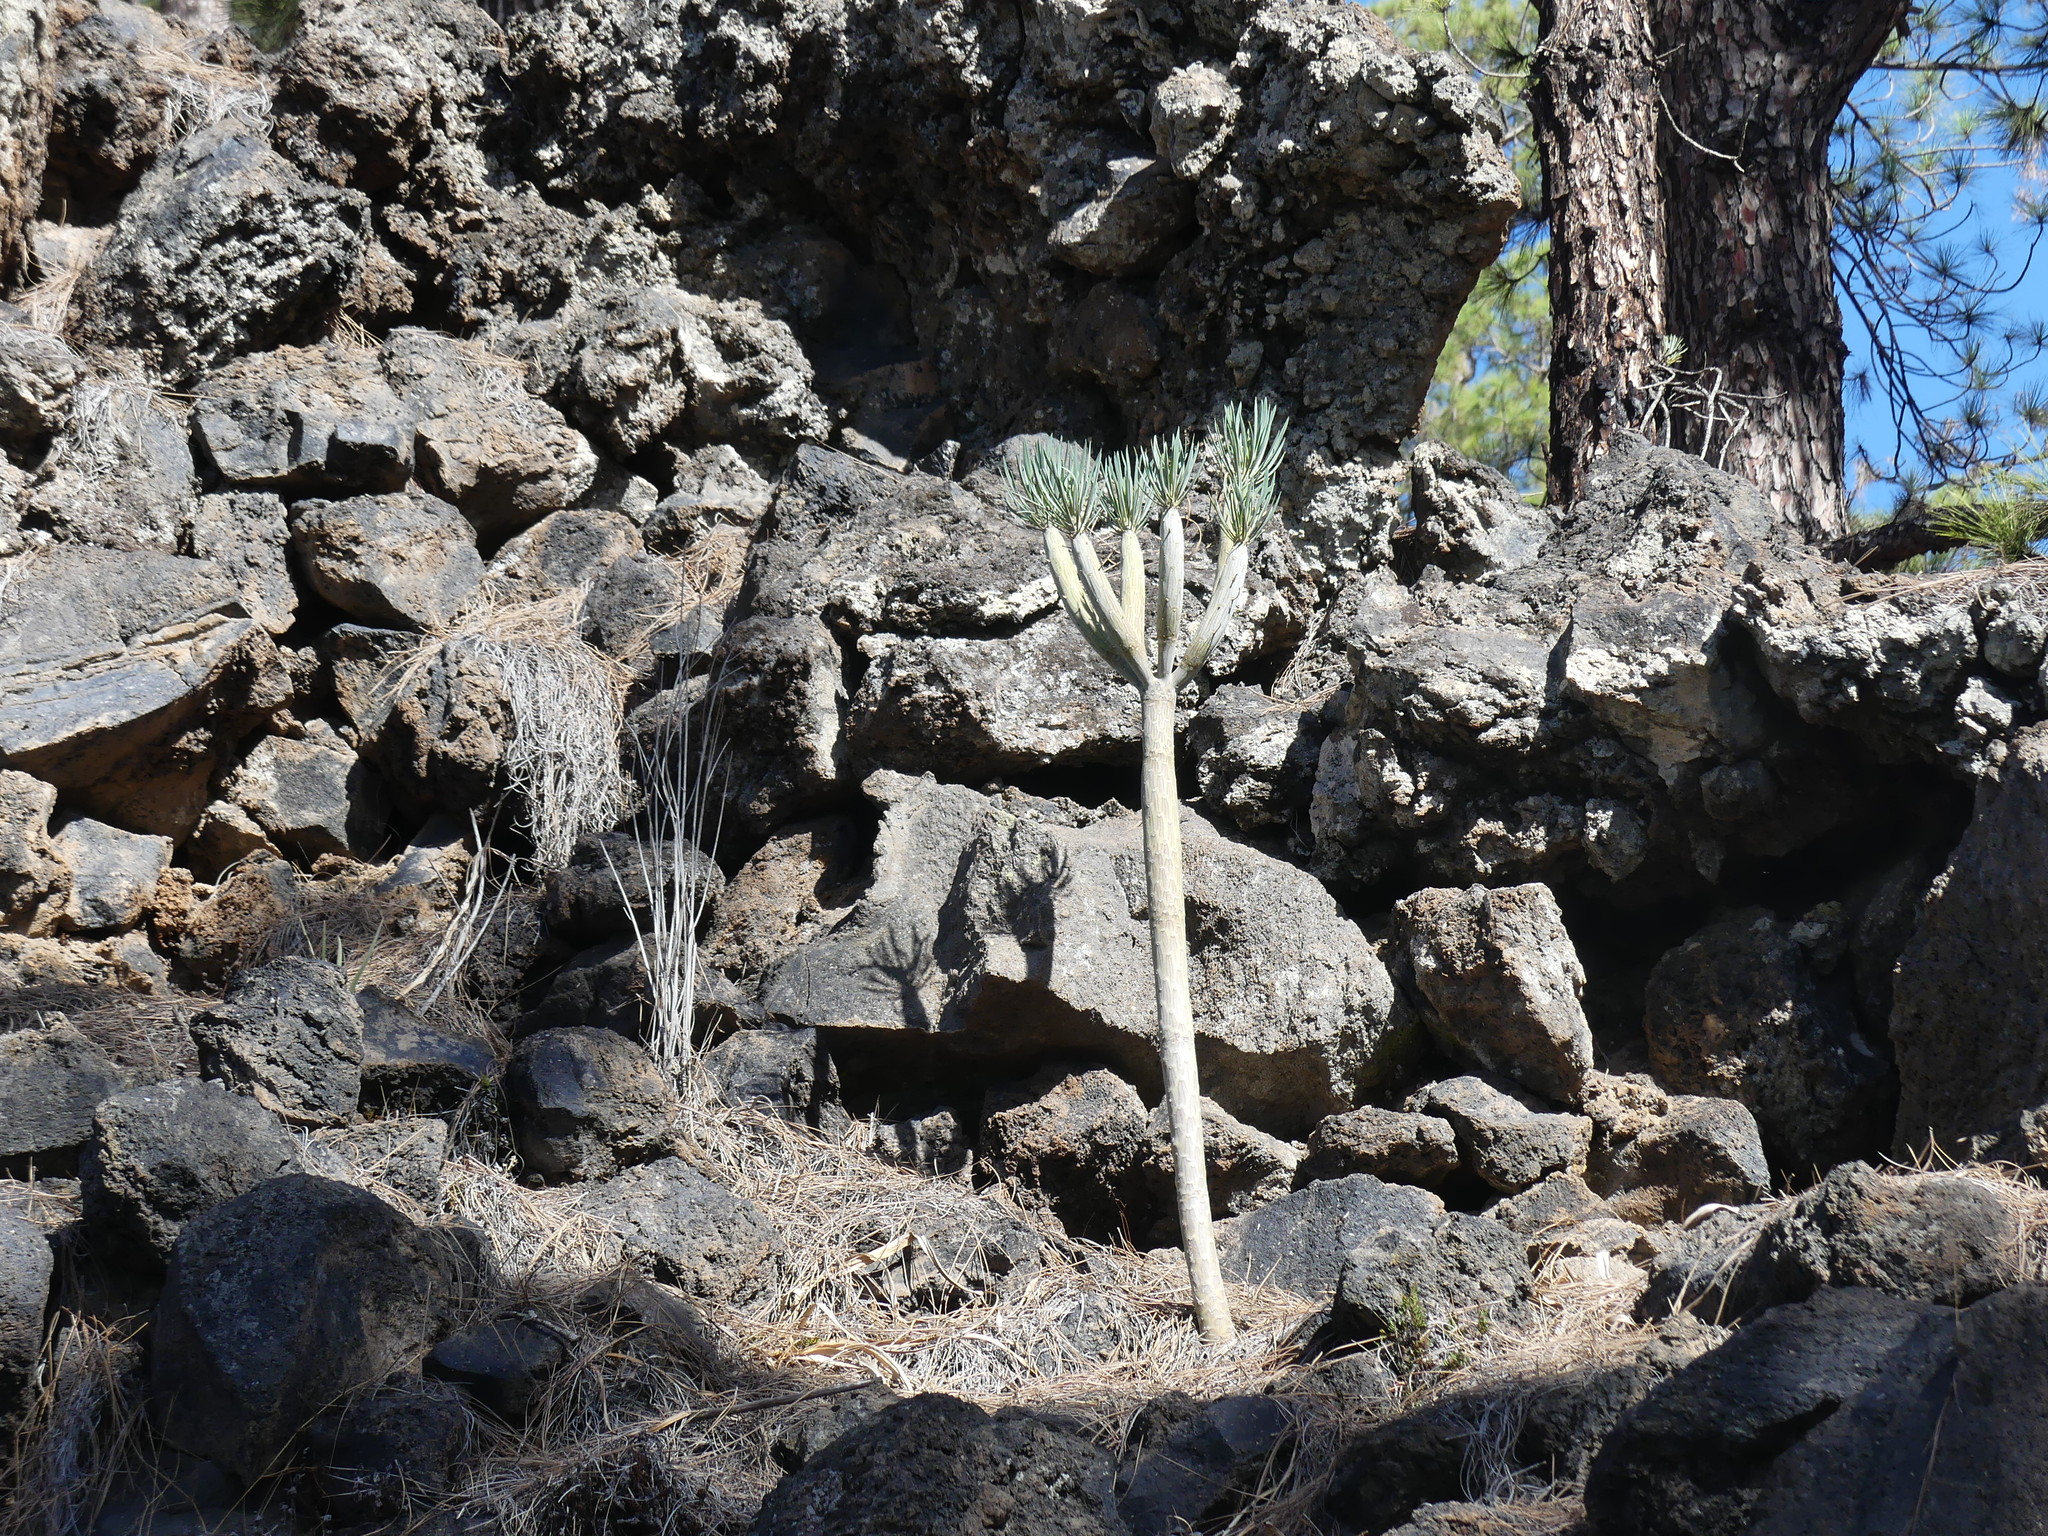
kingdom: Plantae
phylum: Tracheophyta
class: Magnoliopsida
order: Asterales
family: Asteraceae
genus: Kleinia
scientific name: Kleinia neriifolia
